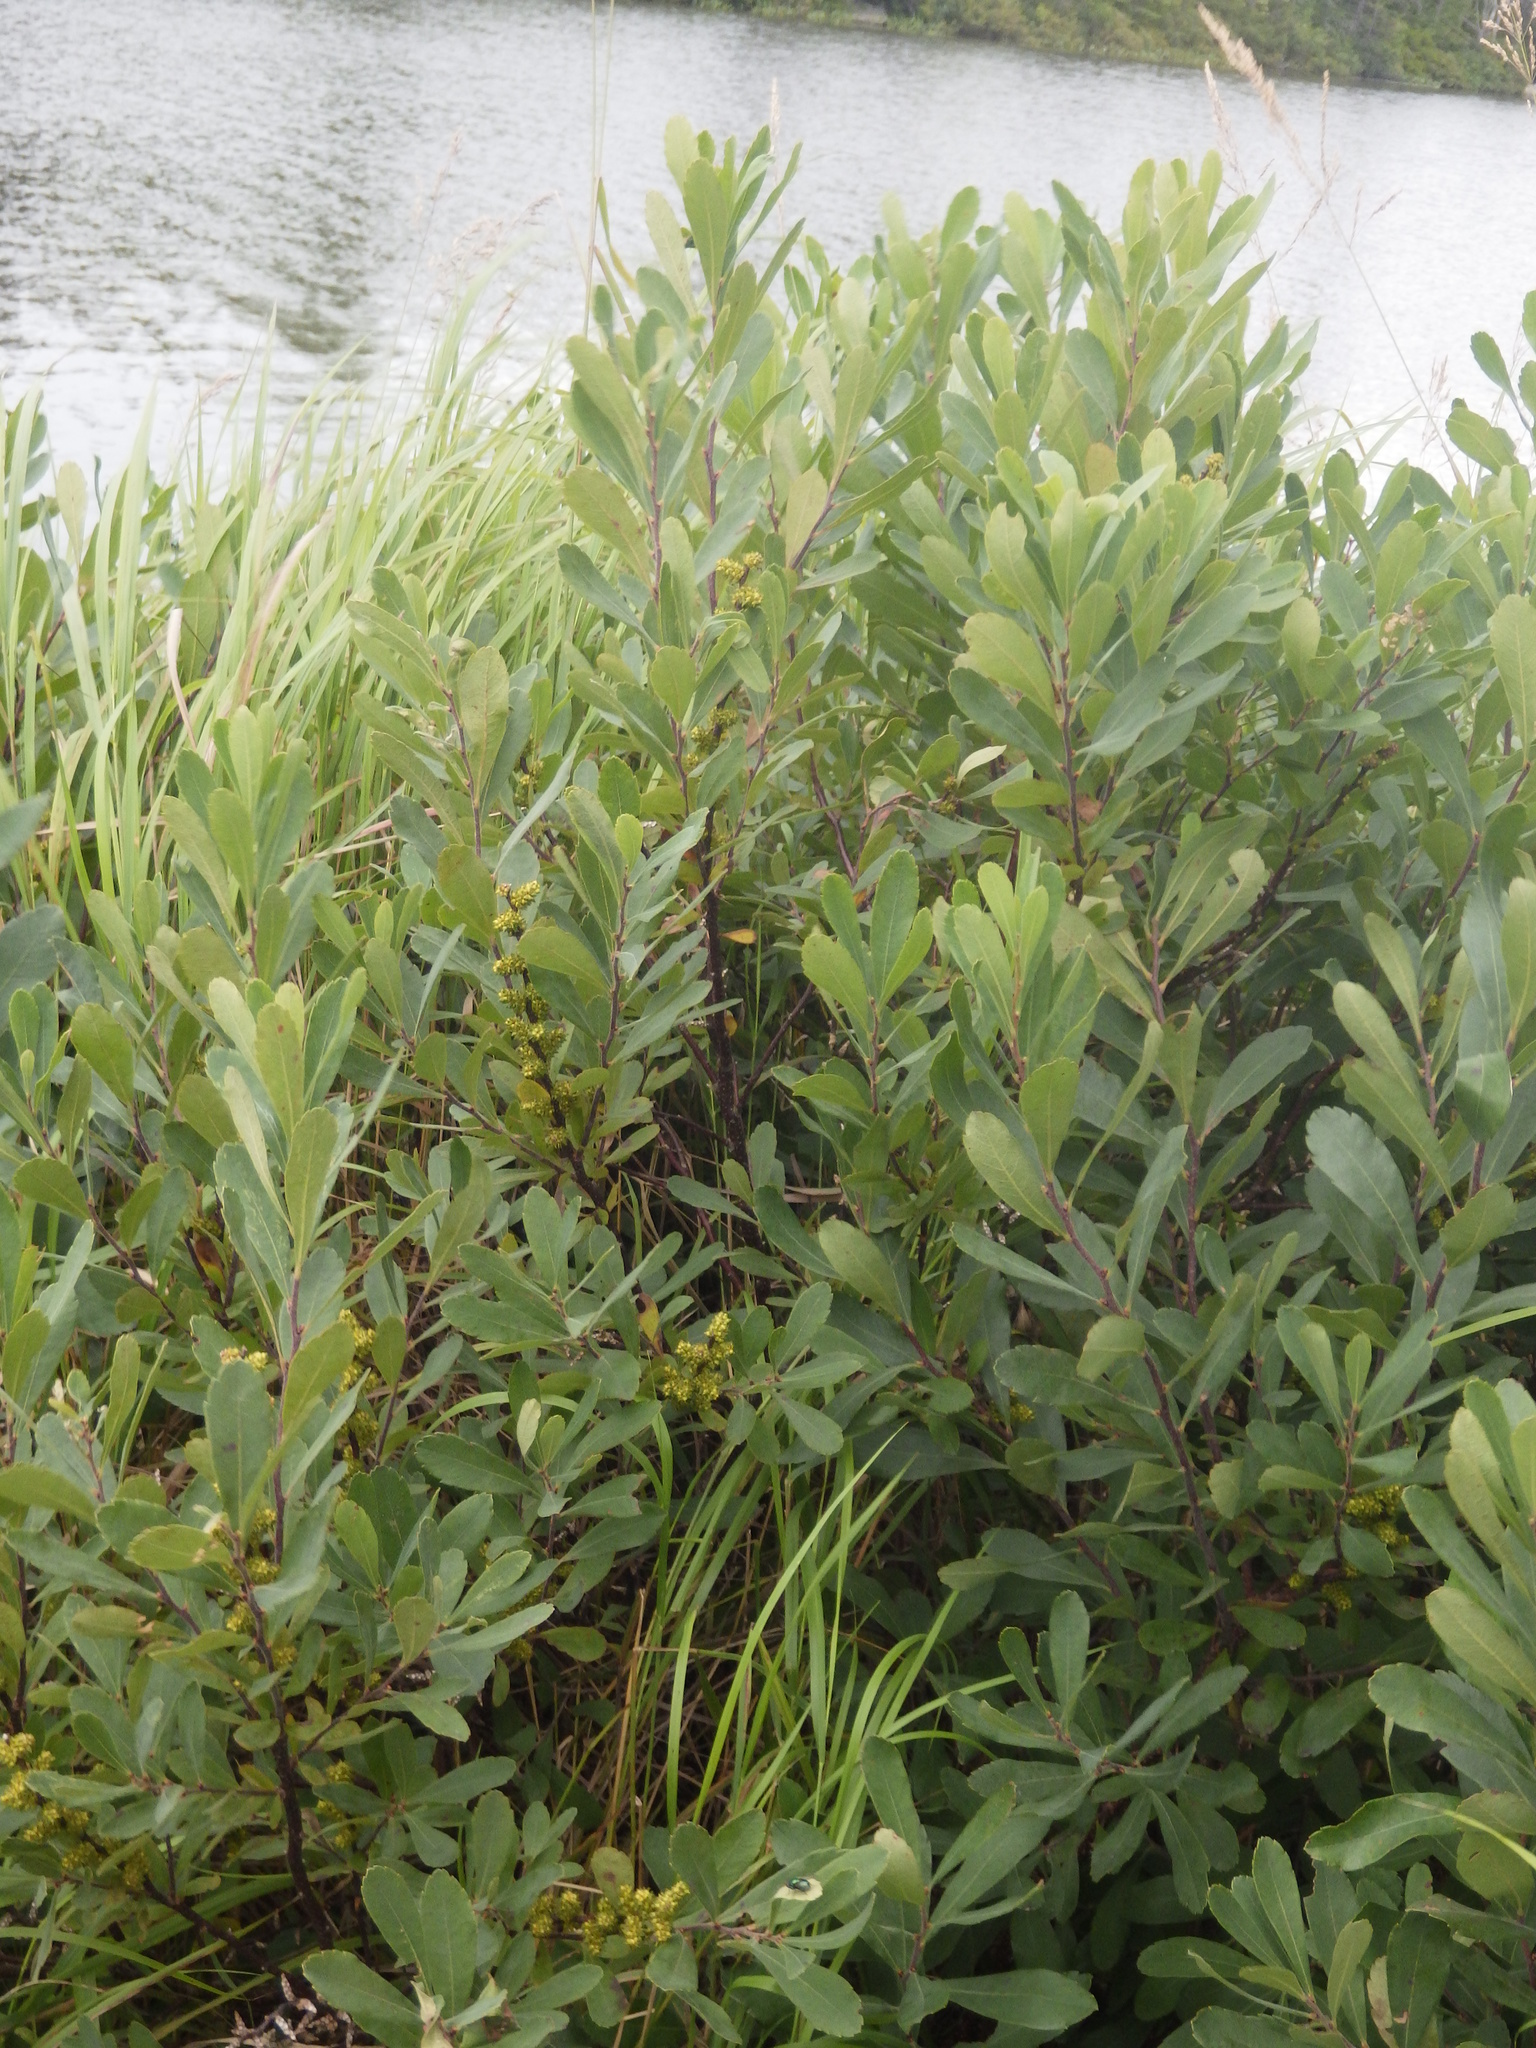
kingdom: Plantae
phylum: Tracheophyta
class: Magnoliopsida
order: Fagales
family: Myricaceae
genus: Myrica
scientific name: Myrica gale
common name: Sweet gale
